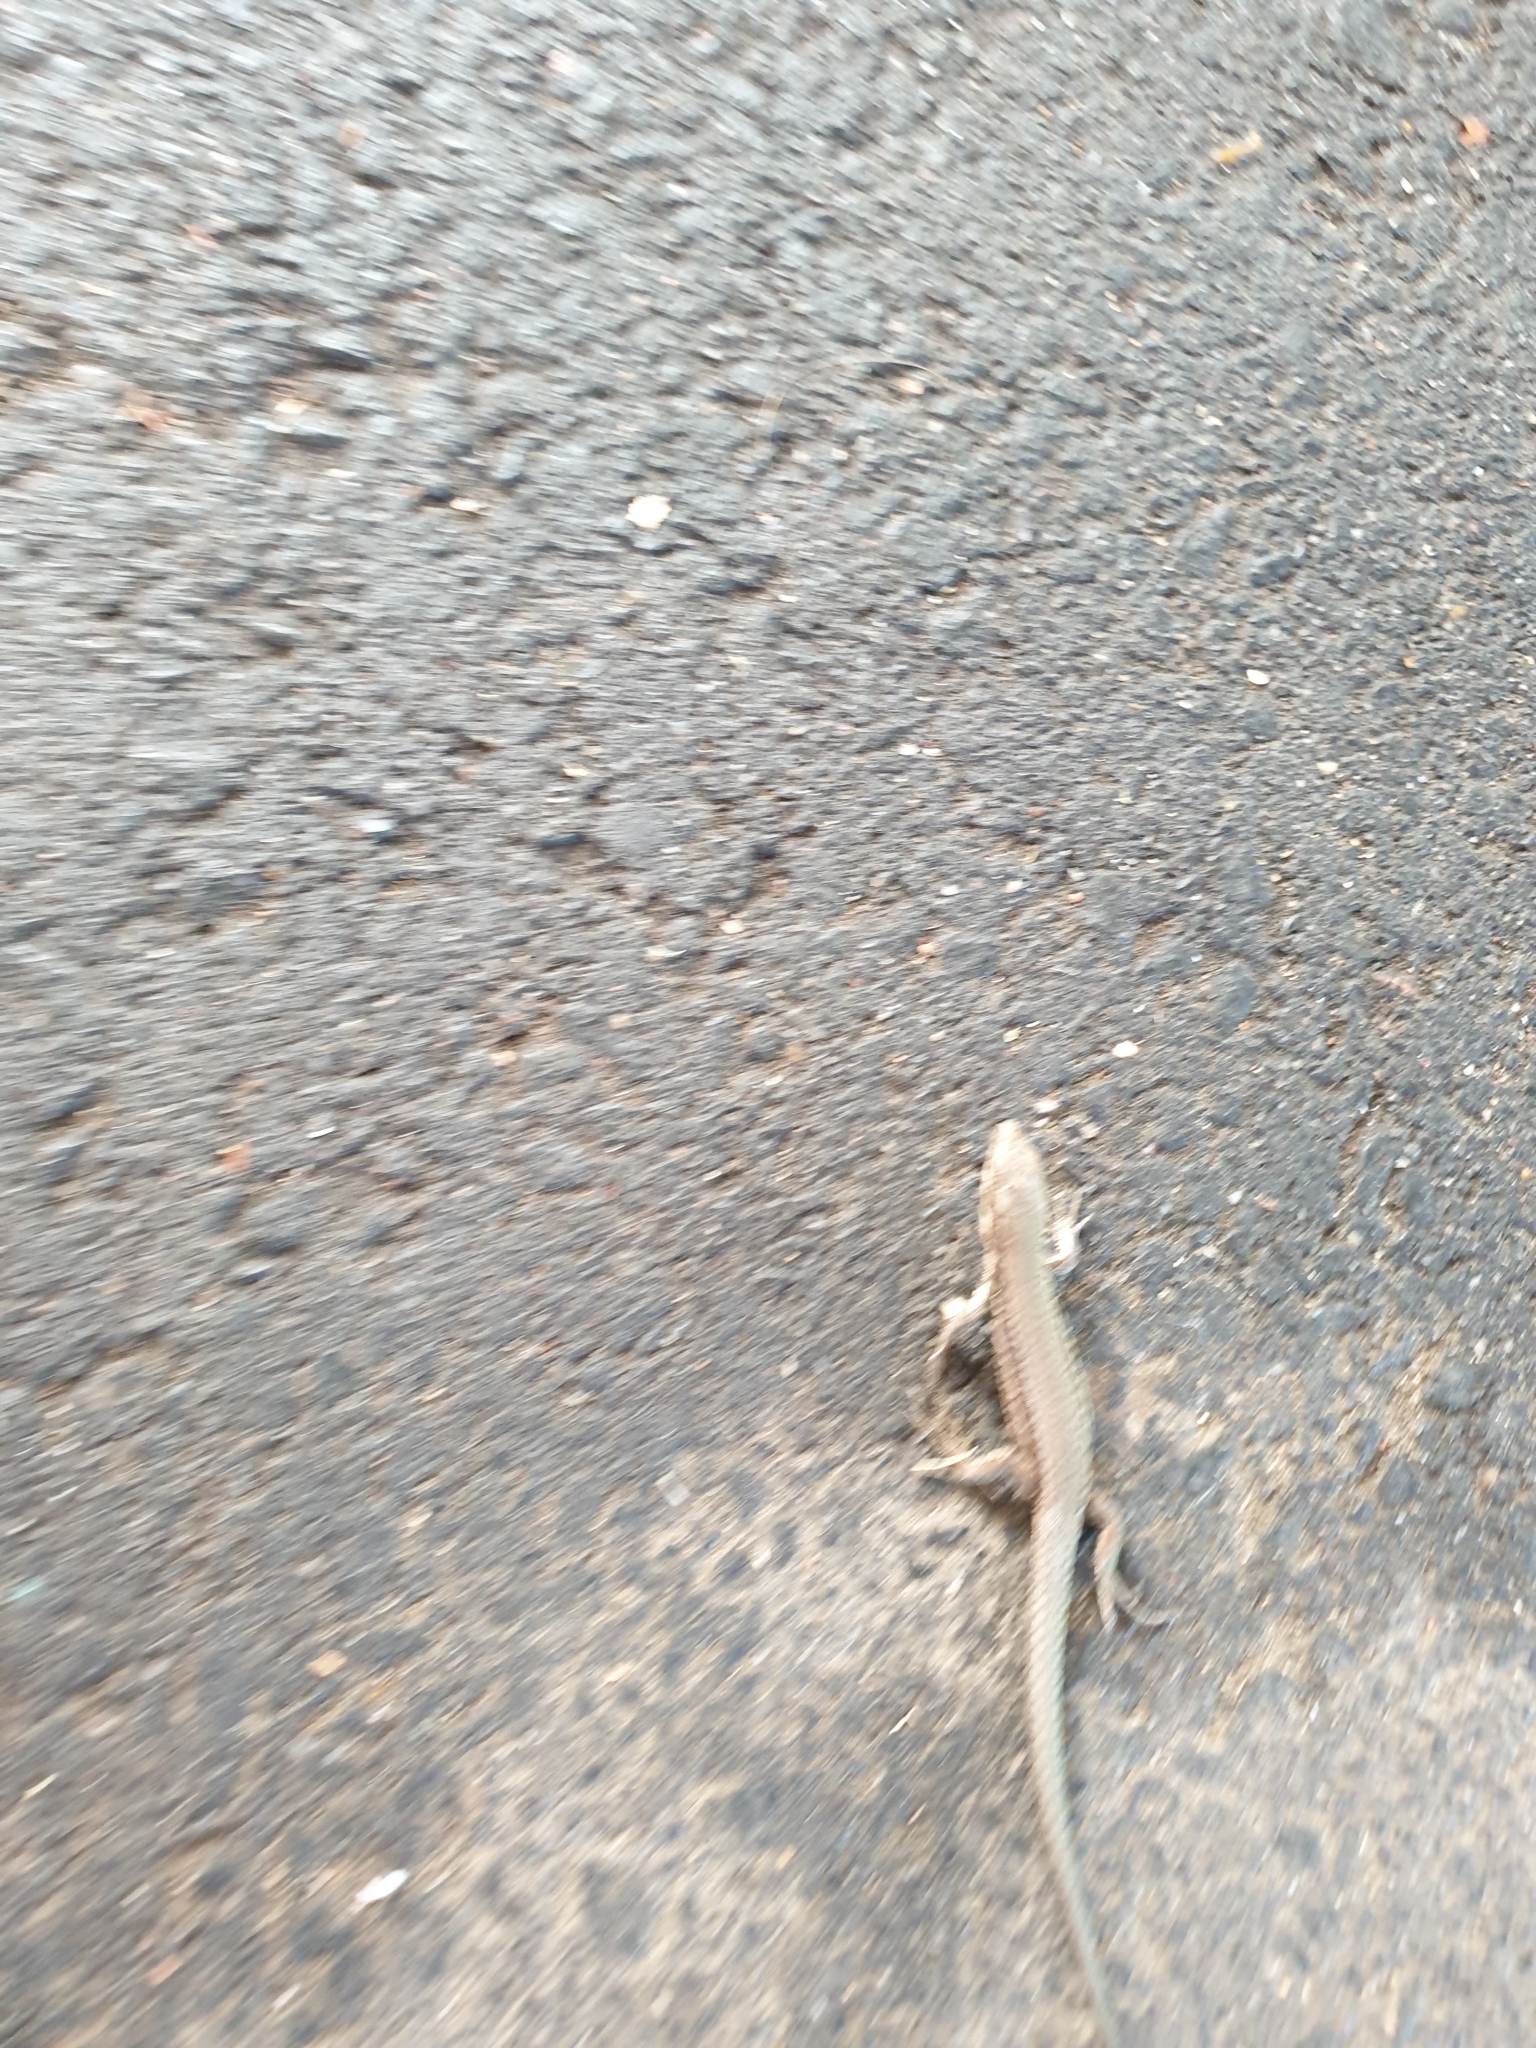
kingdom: Animalia
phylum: Chordata
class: Squamata
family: Lacertidae
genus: Podarcis
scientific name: Podarcis muralis
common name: Common wall lizard
